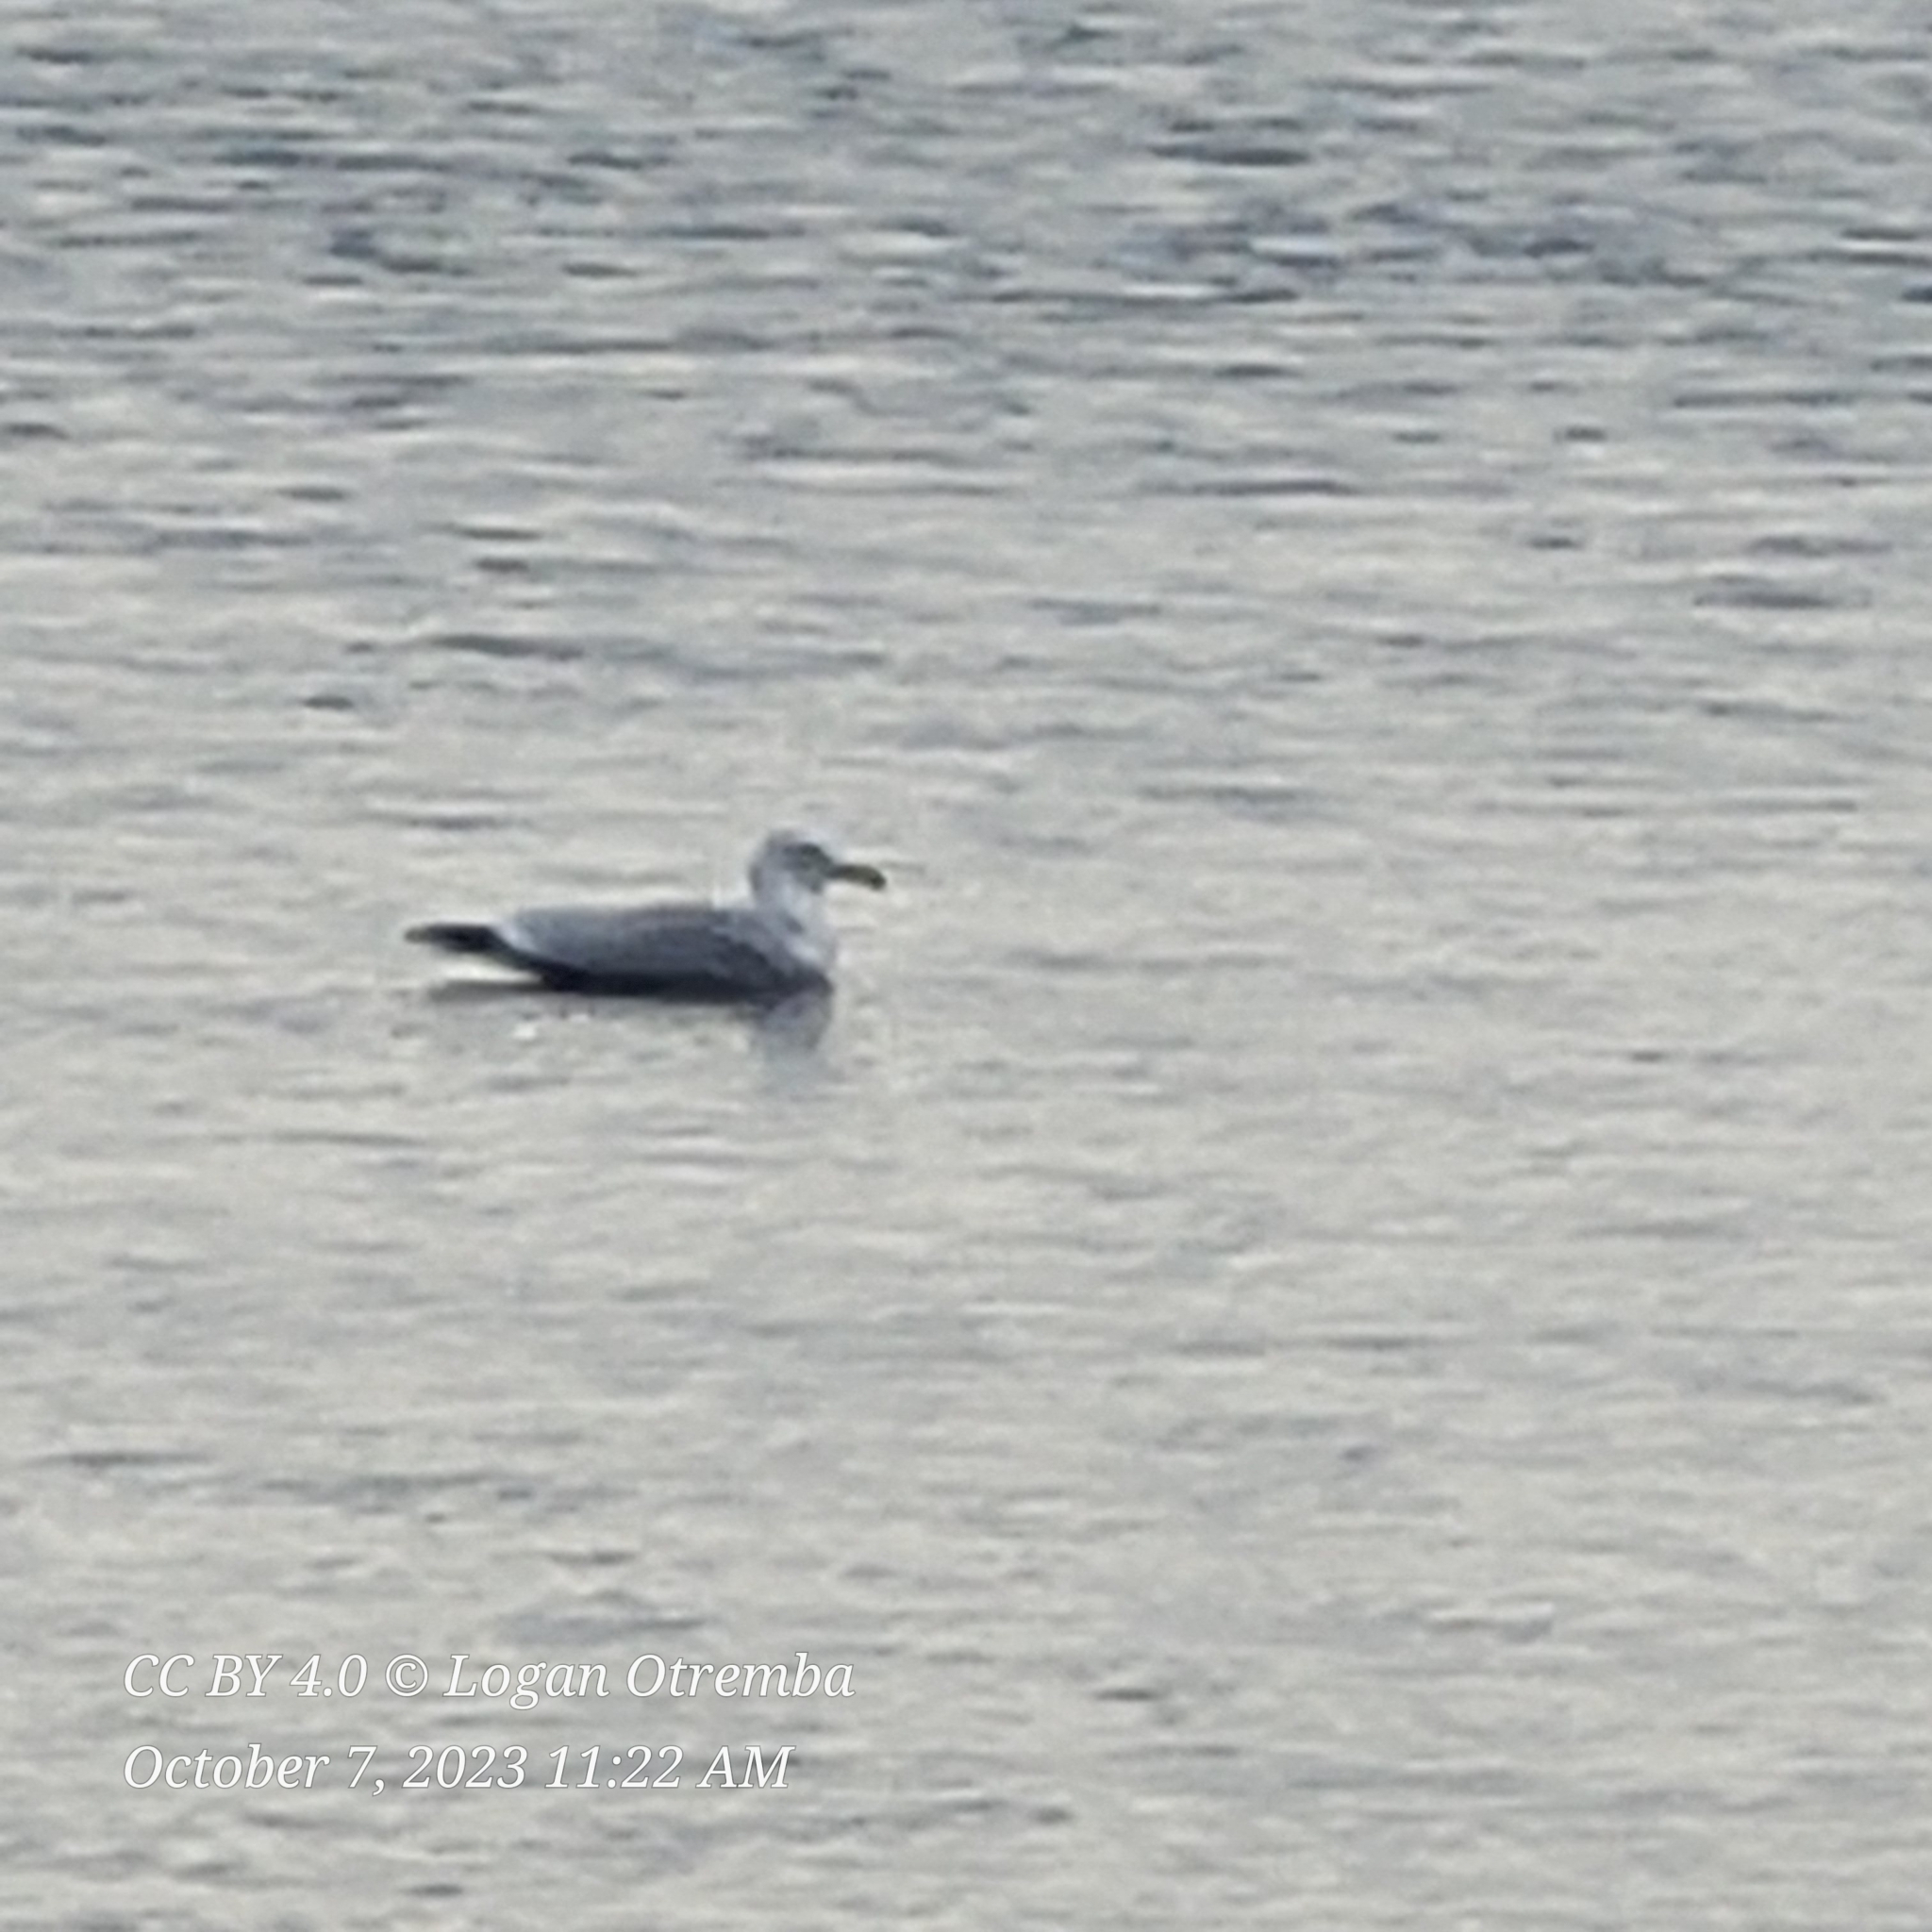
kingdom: Animalia
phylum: Chordata
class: Aves
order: Charadriiformes
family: Laridae
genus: Larus
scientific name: Larus delawarensis
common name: Ring-billed gull
